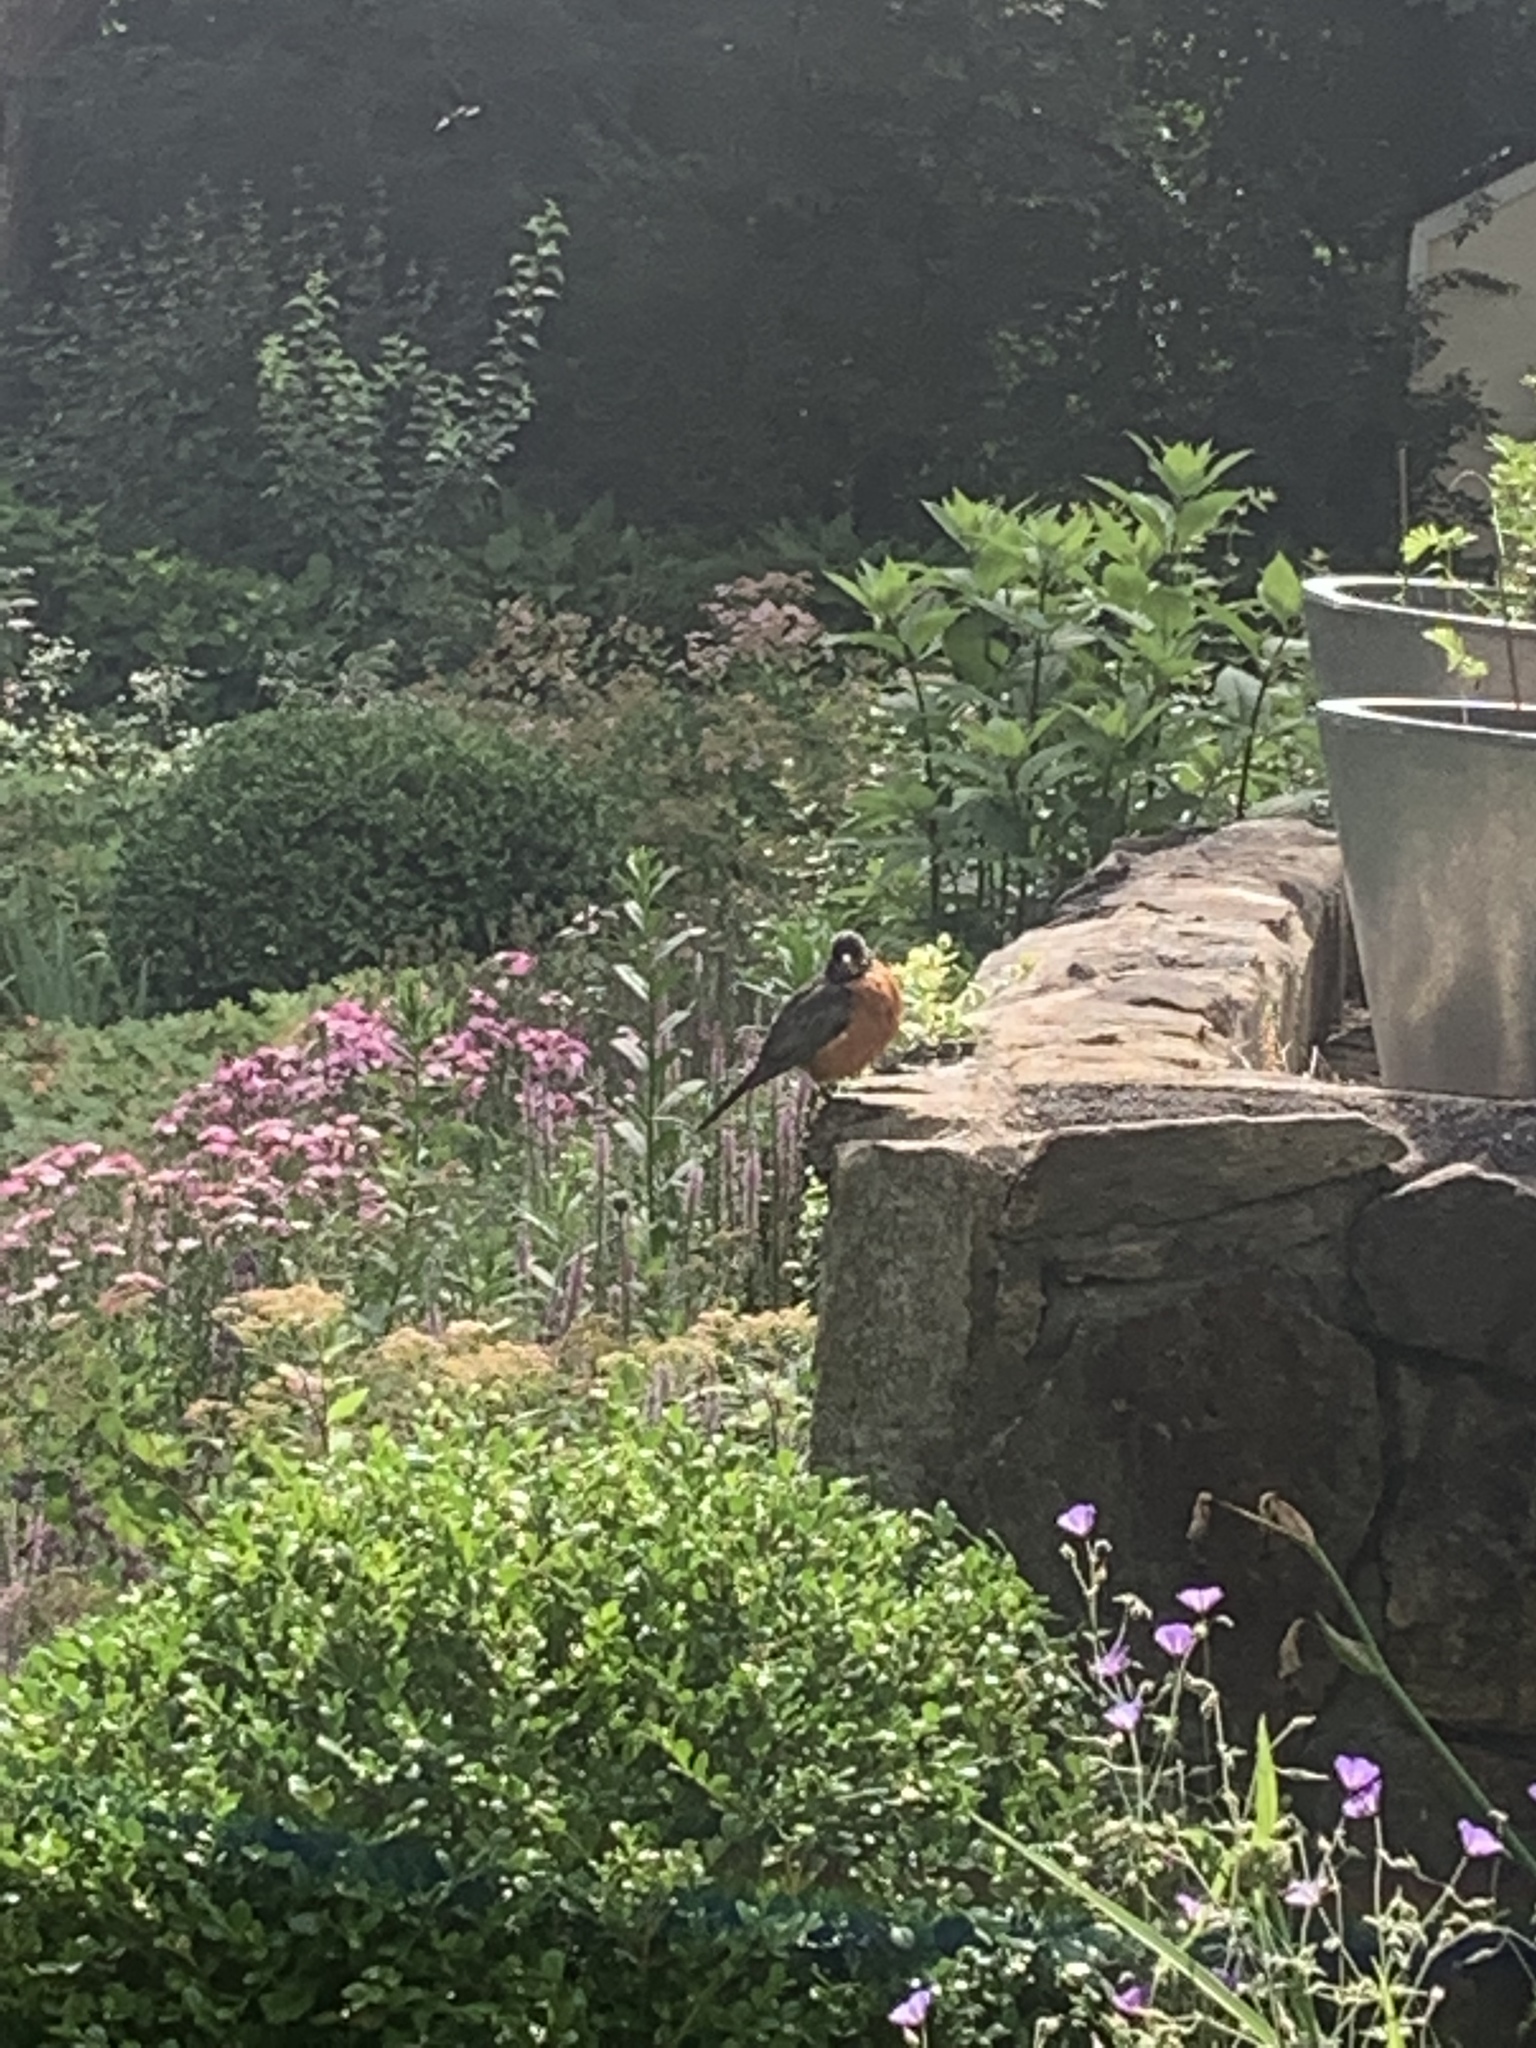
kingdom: Animalia
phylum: Chordata
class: Aves
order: Passeriformes
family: Turdidae
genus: Turdus
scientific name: Turdus migratorius
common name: American robin
